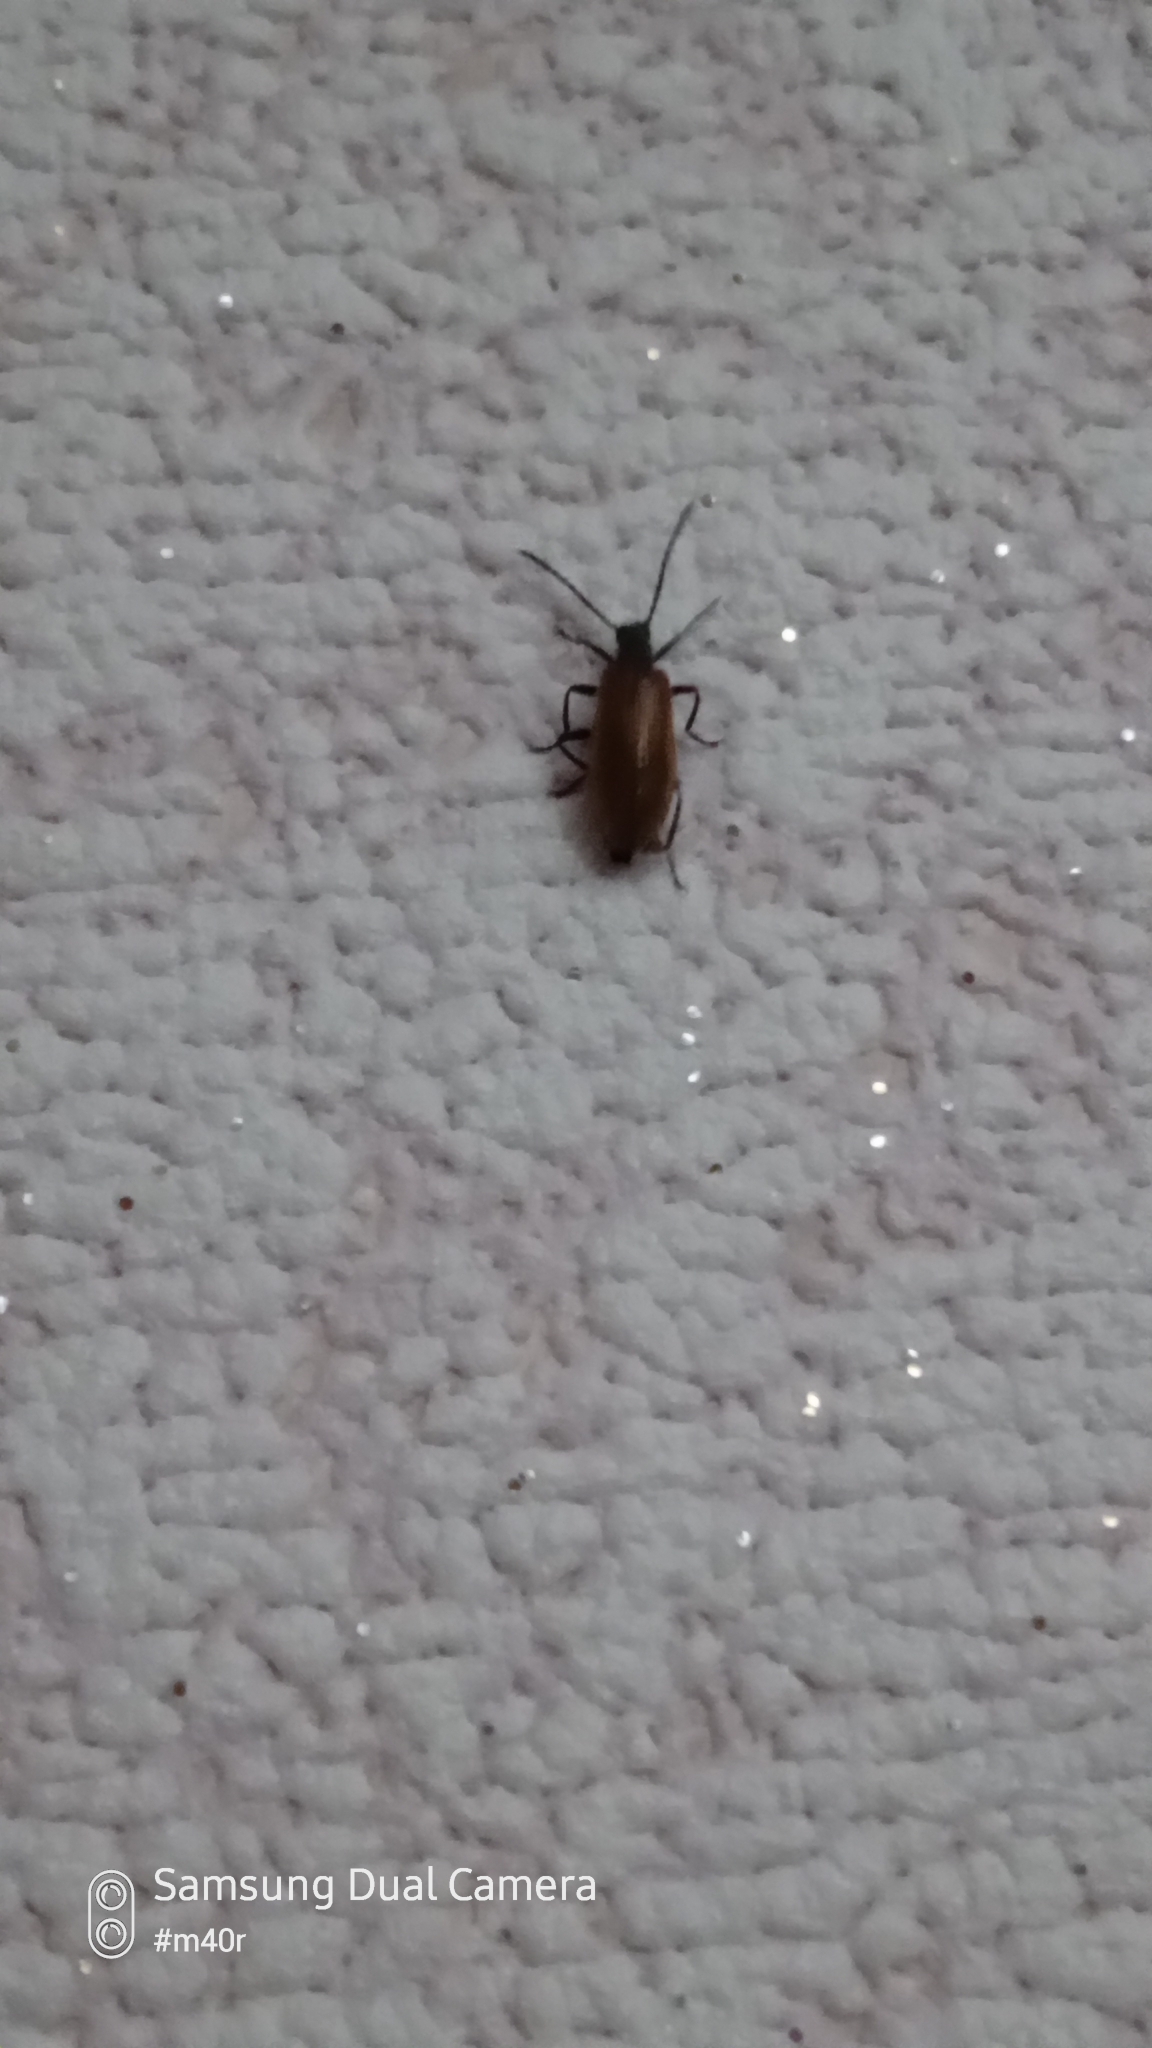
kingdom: Animalia
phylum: Arthropoda
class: Insecta
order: Coleoptera
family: Tenebrionidae
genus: Lagria
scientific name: Lagria hirta
